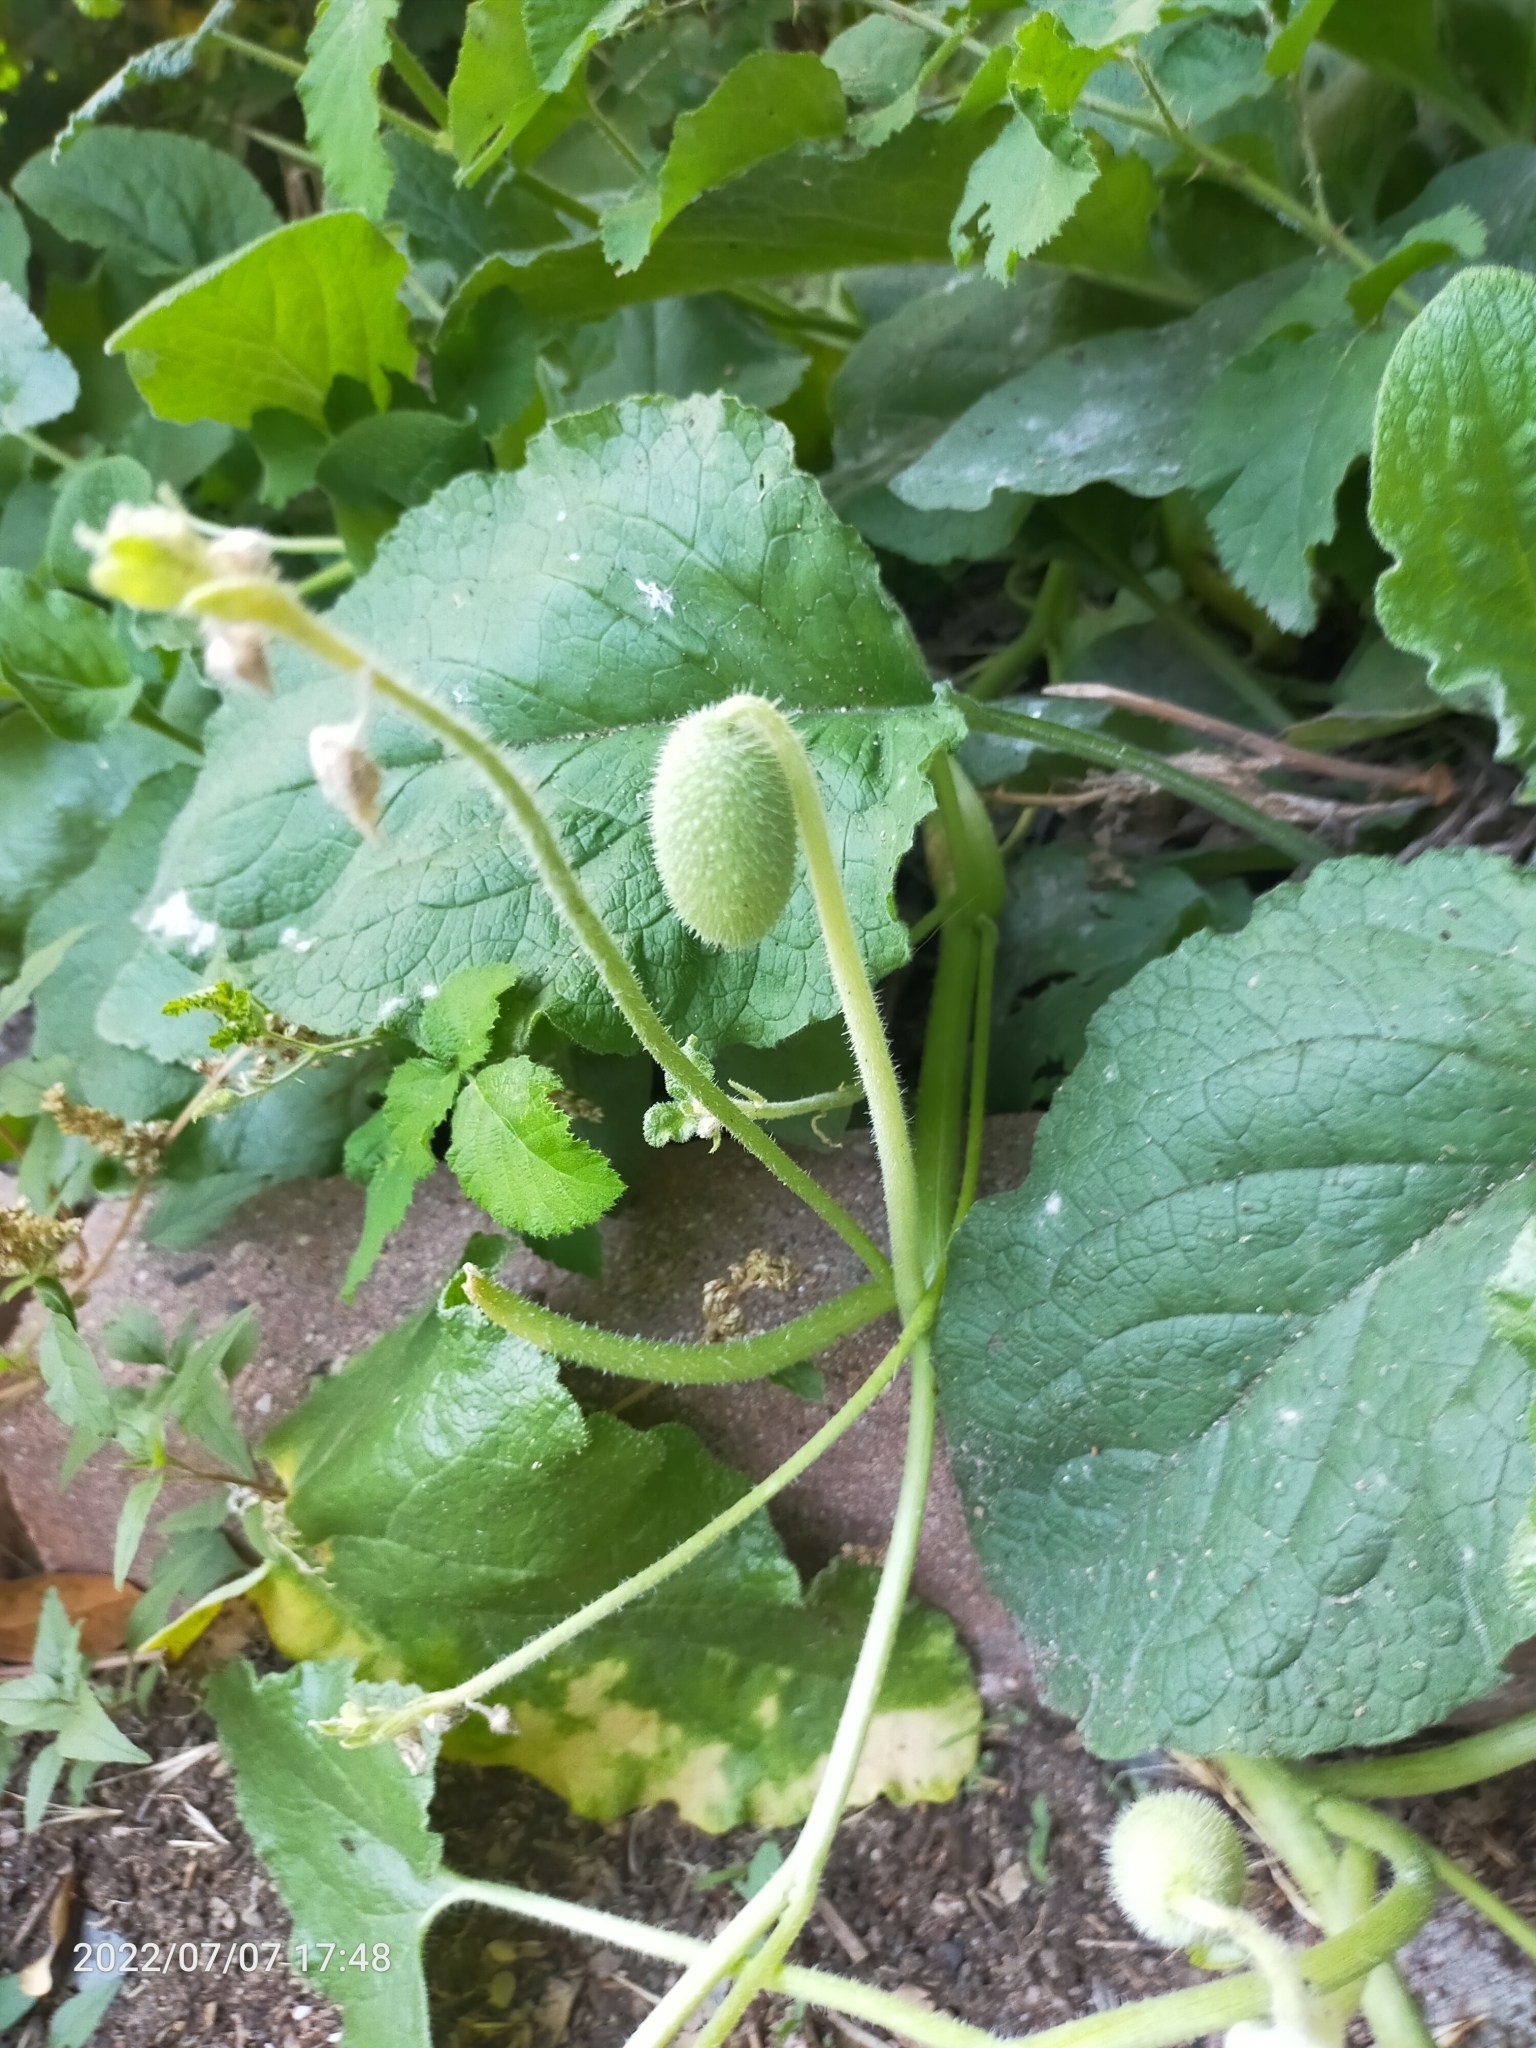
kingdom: Plantae
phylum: Tracheophyta
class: Magnoliopsida
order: Cucurbitales
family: Cucurbitaceae
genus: Ecballium
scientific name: Ecballium elaterium
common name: Squirting cucumber
